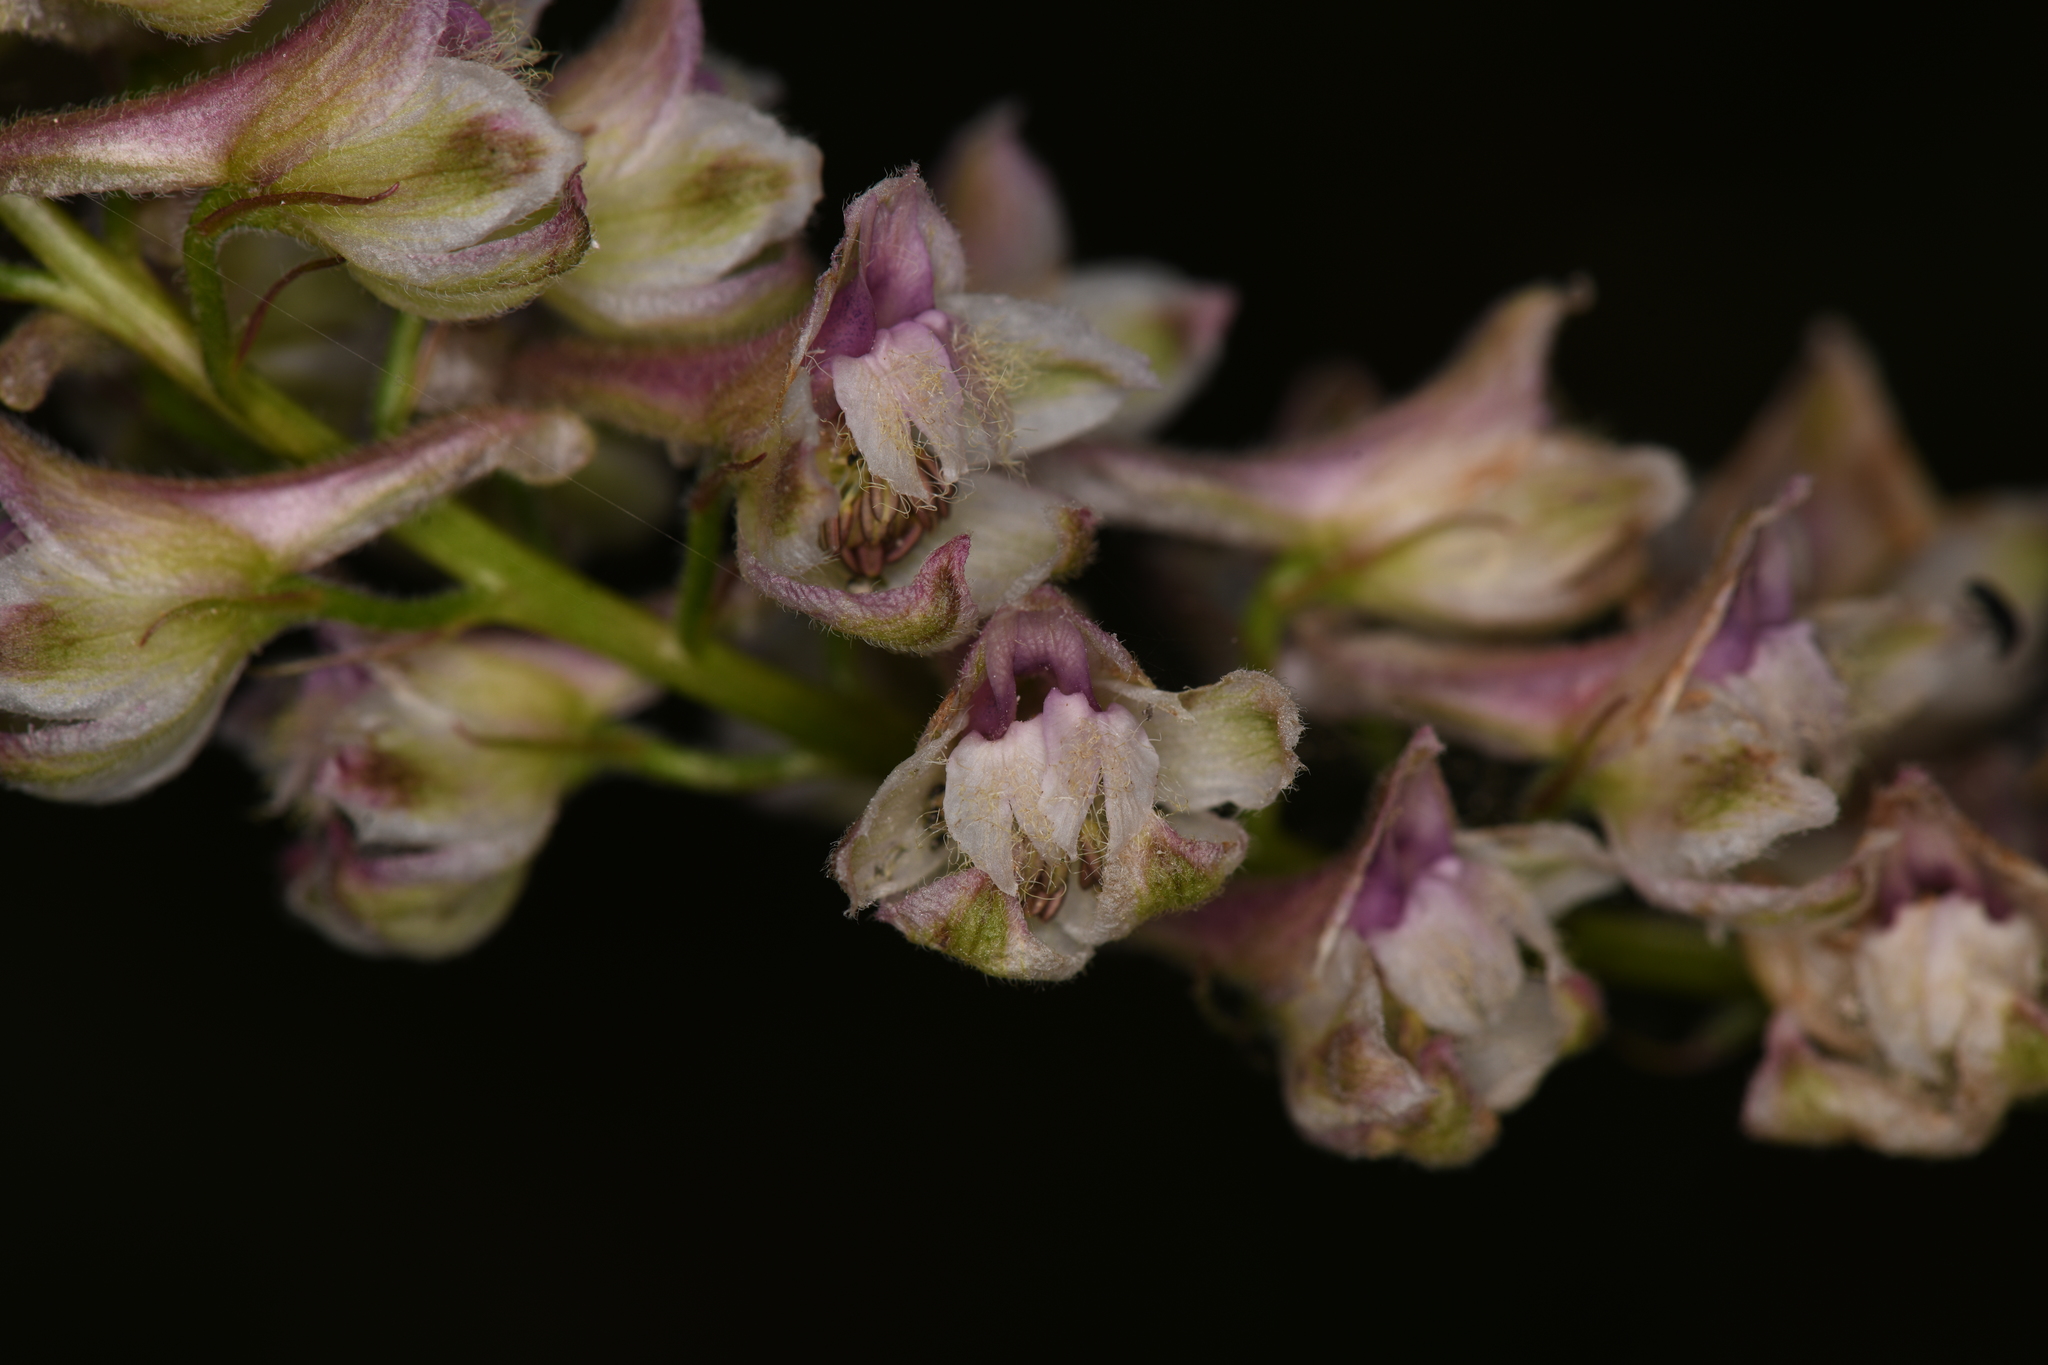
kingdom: Plantae
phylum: Tracheophyta
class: Magnoliopsida
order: Ranunculales
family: Ranunculaceae
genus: Delphinium
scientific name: Delphinium californicum
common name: California larkspur
